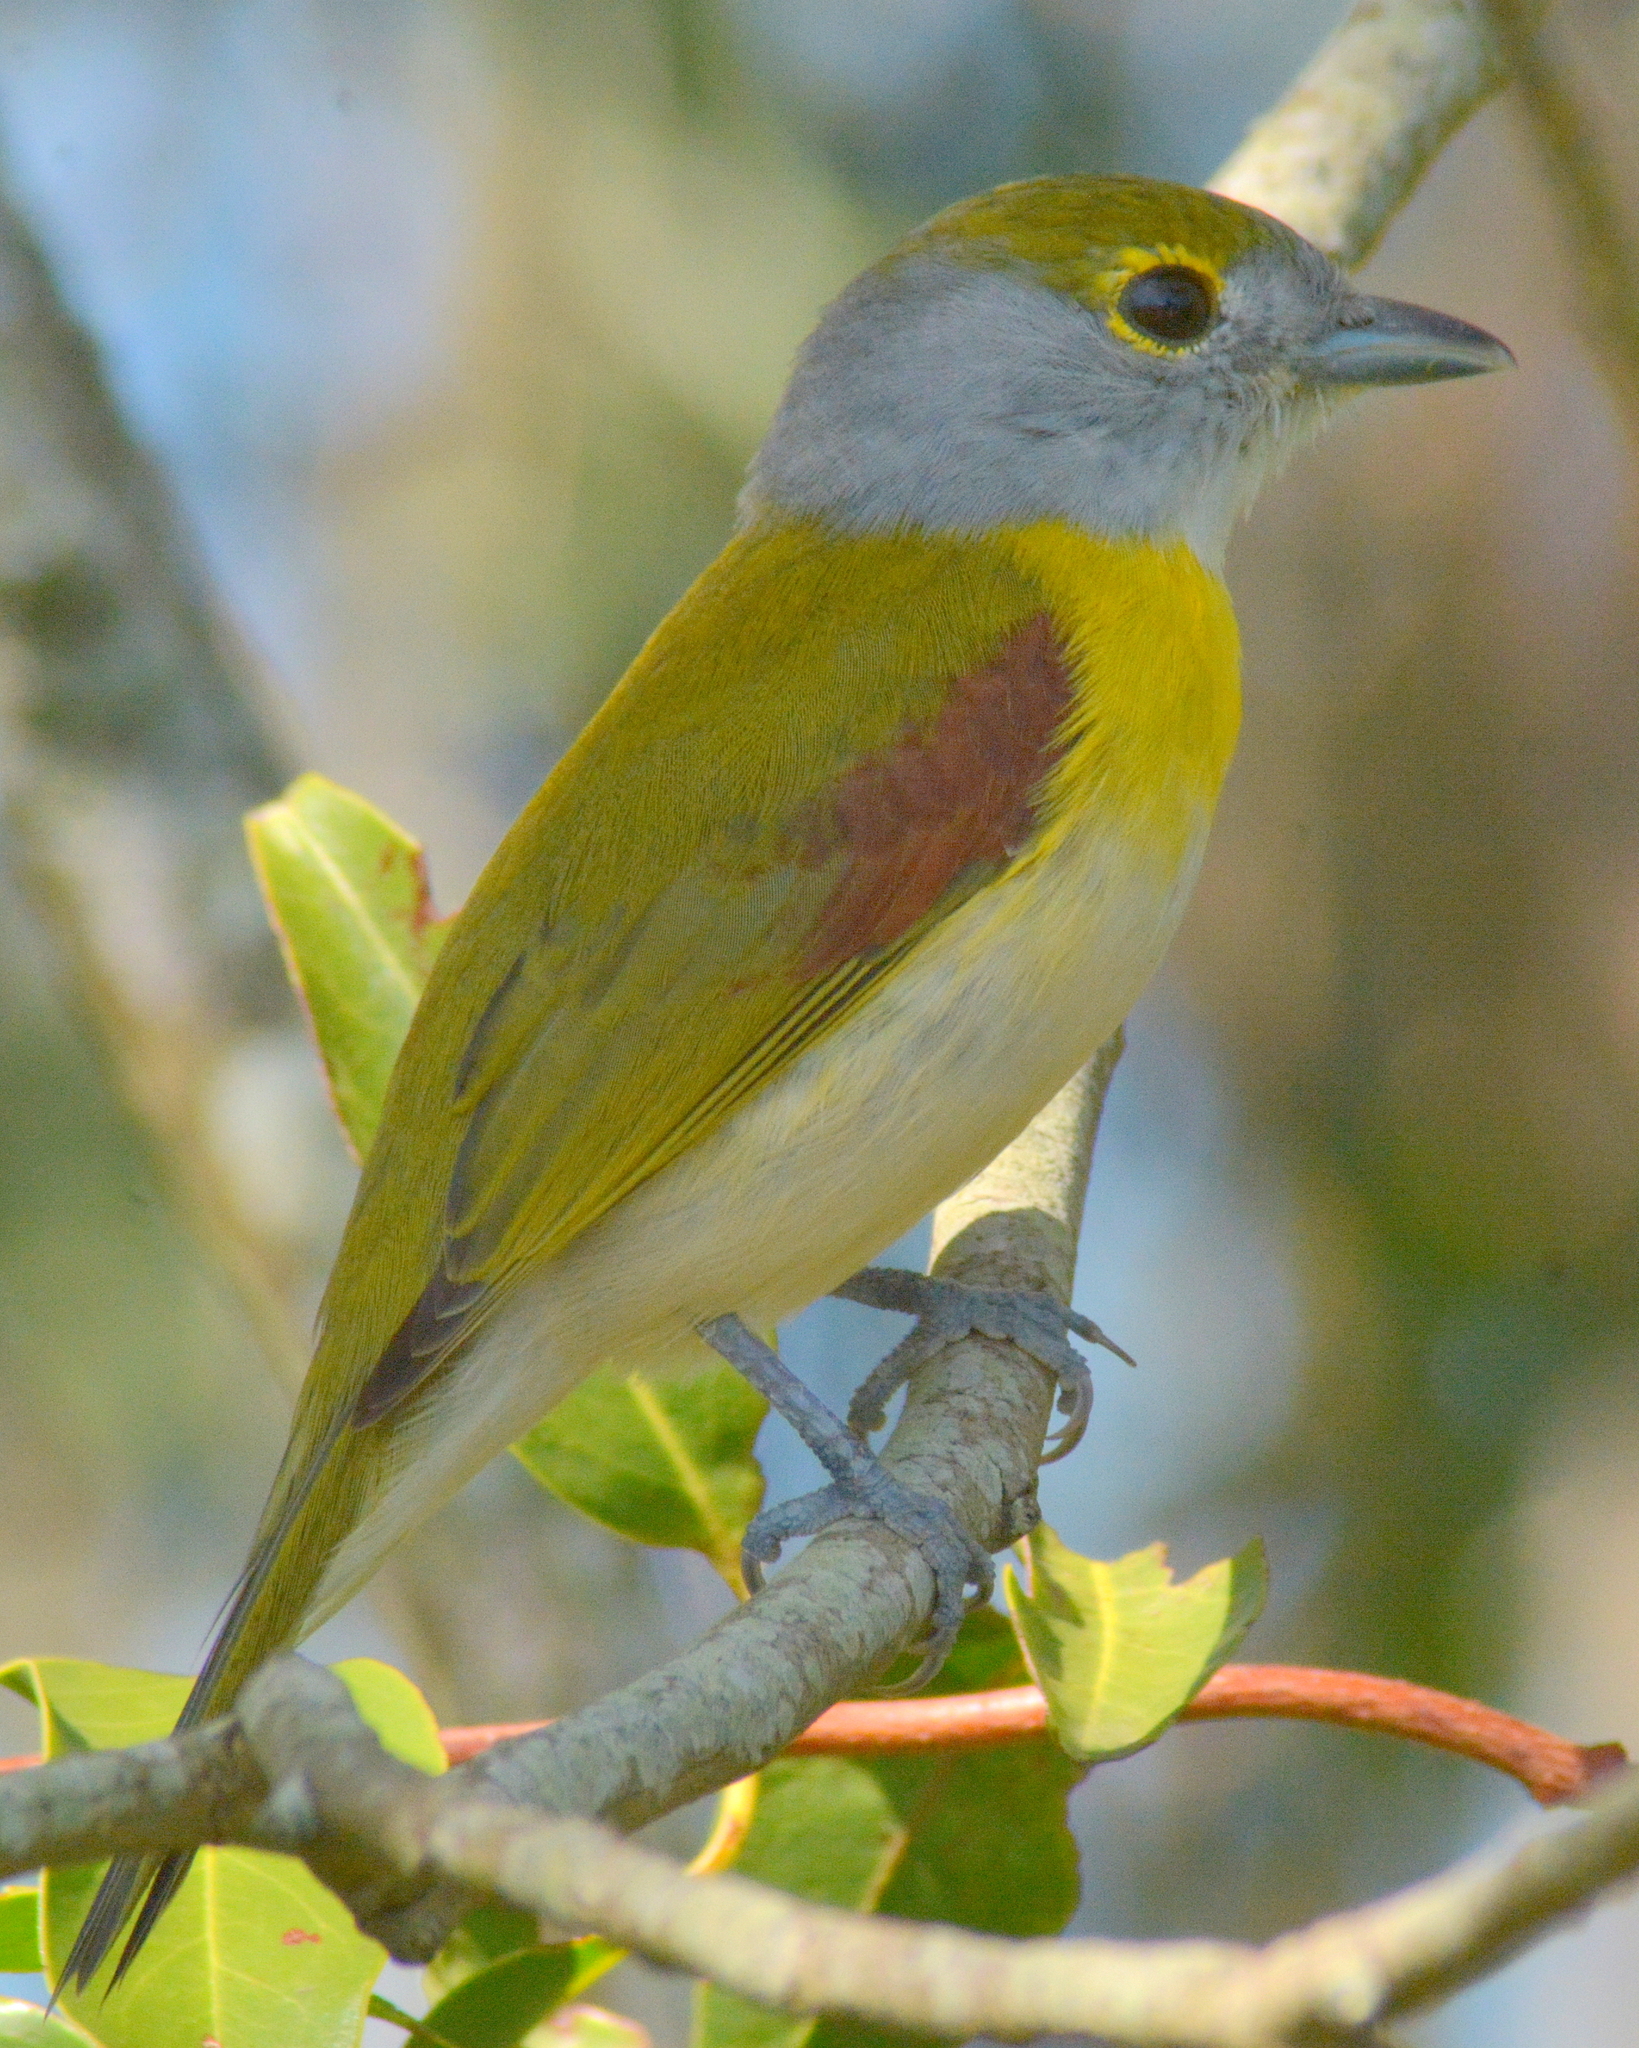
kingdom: Animalia
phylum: Chordata
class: Aves
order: Passeriformes
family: Cotingidae
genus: Pachyramphus
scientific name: Pachyramphus viridis
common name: Green-backed becard
